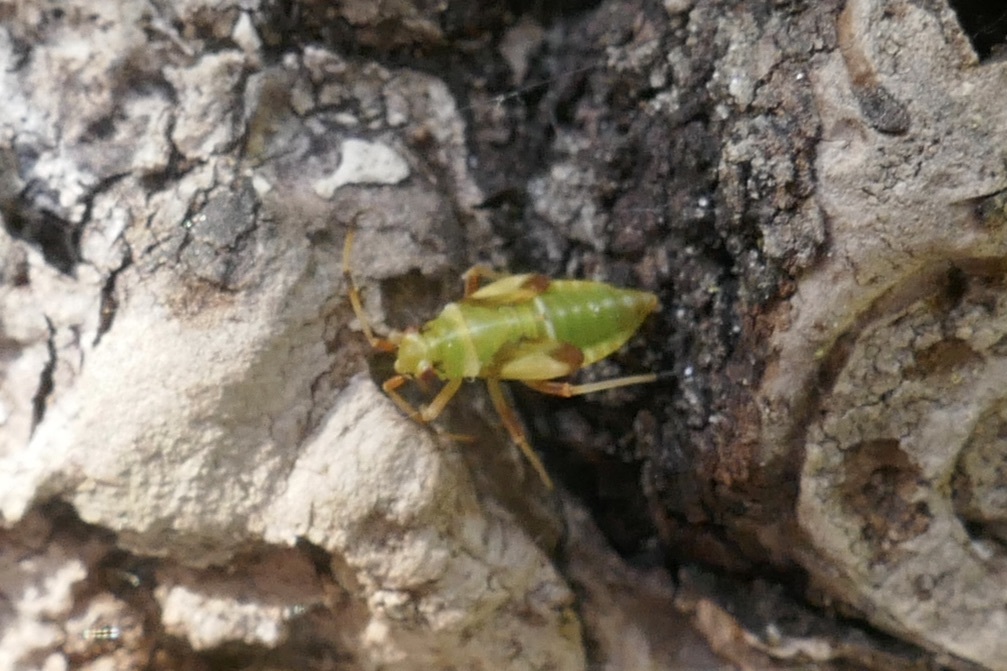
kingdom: Animalia
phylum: Arthropoda
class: Insecta
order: Hemiptera
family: Miridae
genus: Dryophilocoris
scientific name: Dryophilocoris flavoquadrimaculatus
